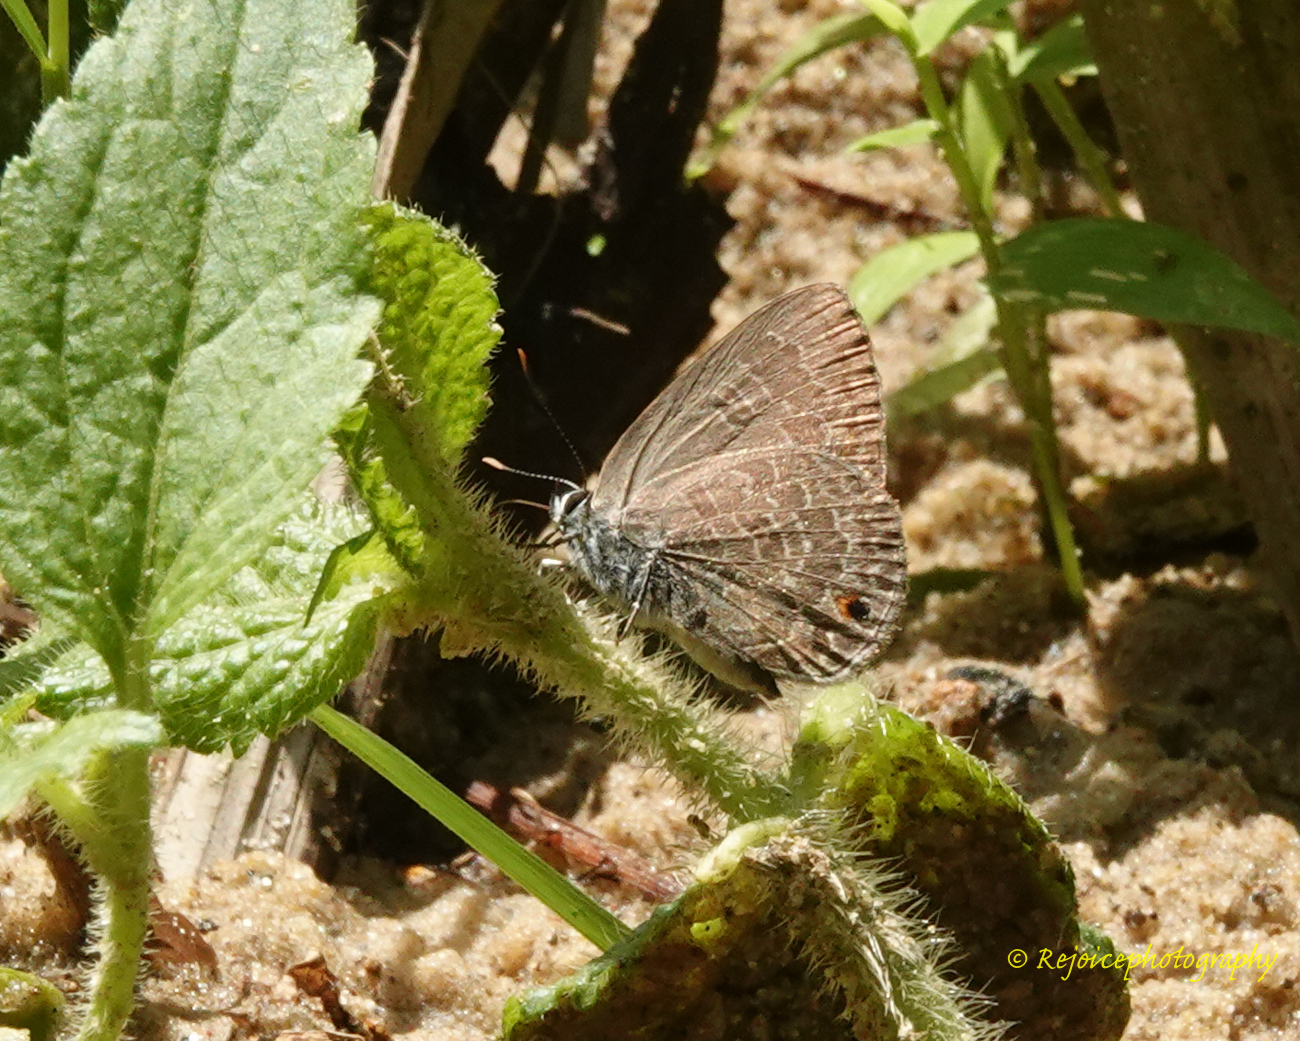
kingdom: Animalia
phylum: Arthropoda
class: Insecta
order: Lepidoptera
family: Lycaenidae
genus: Anthene
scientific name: Anthene emolus
